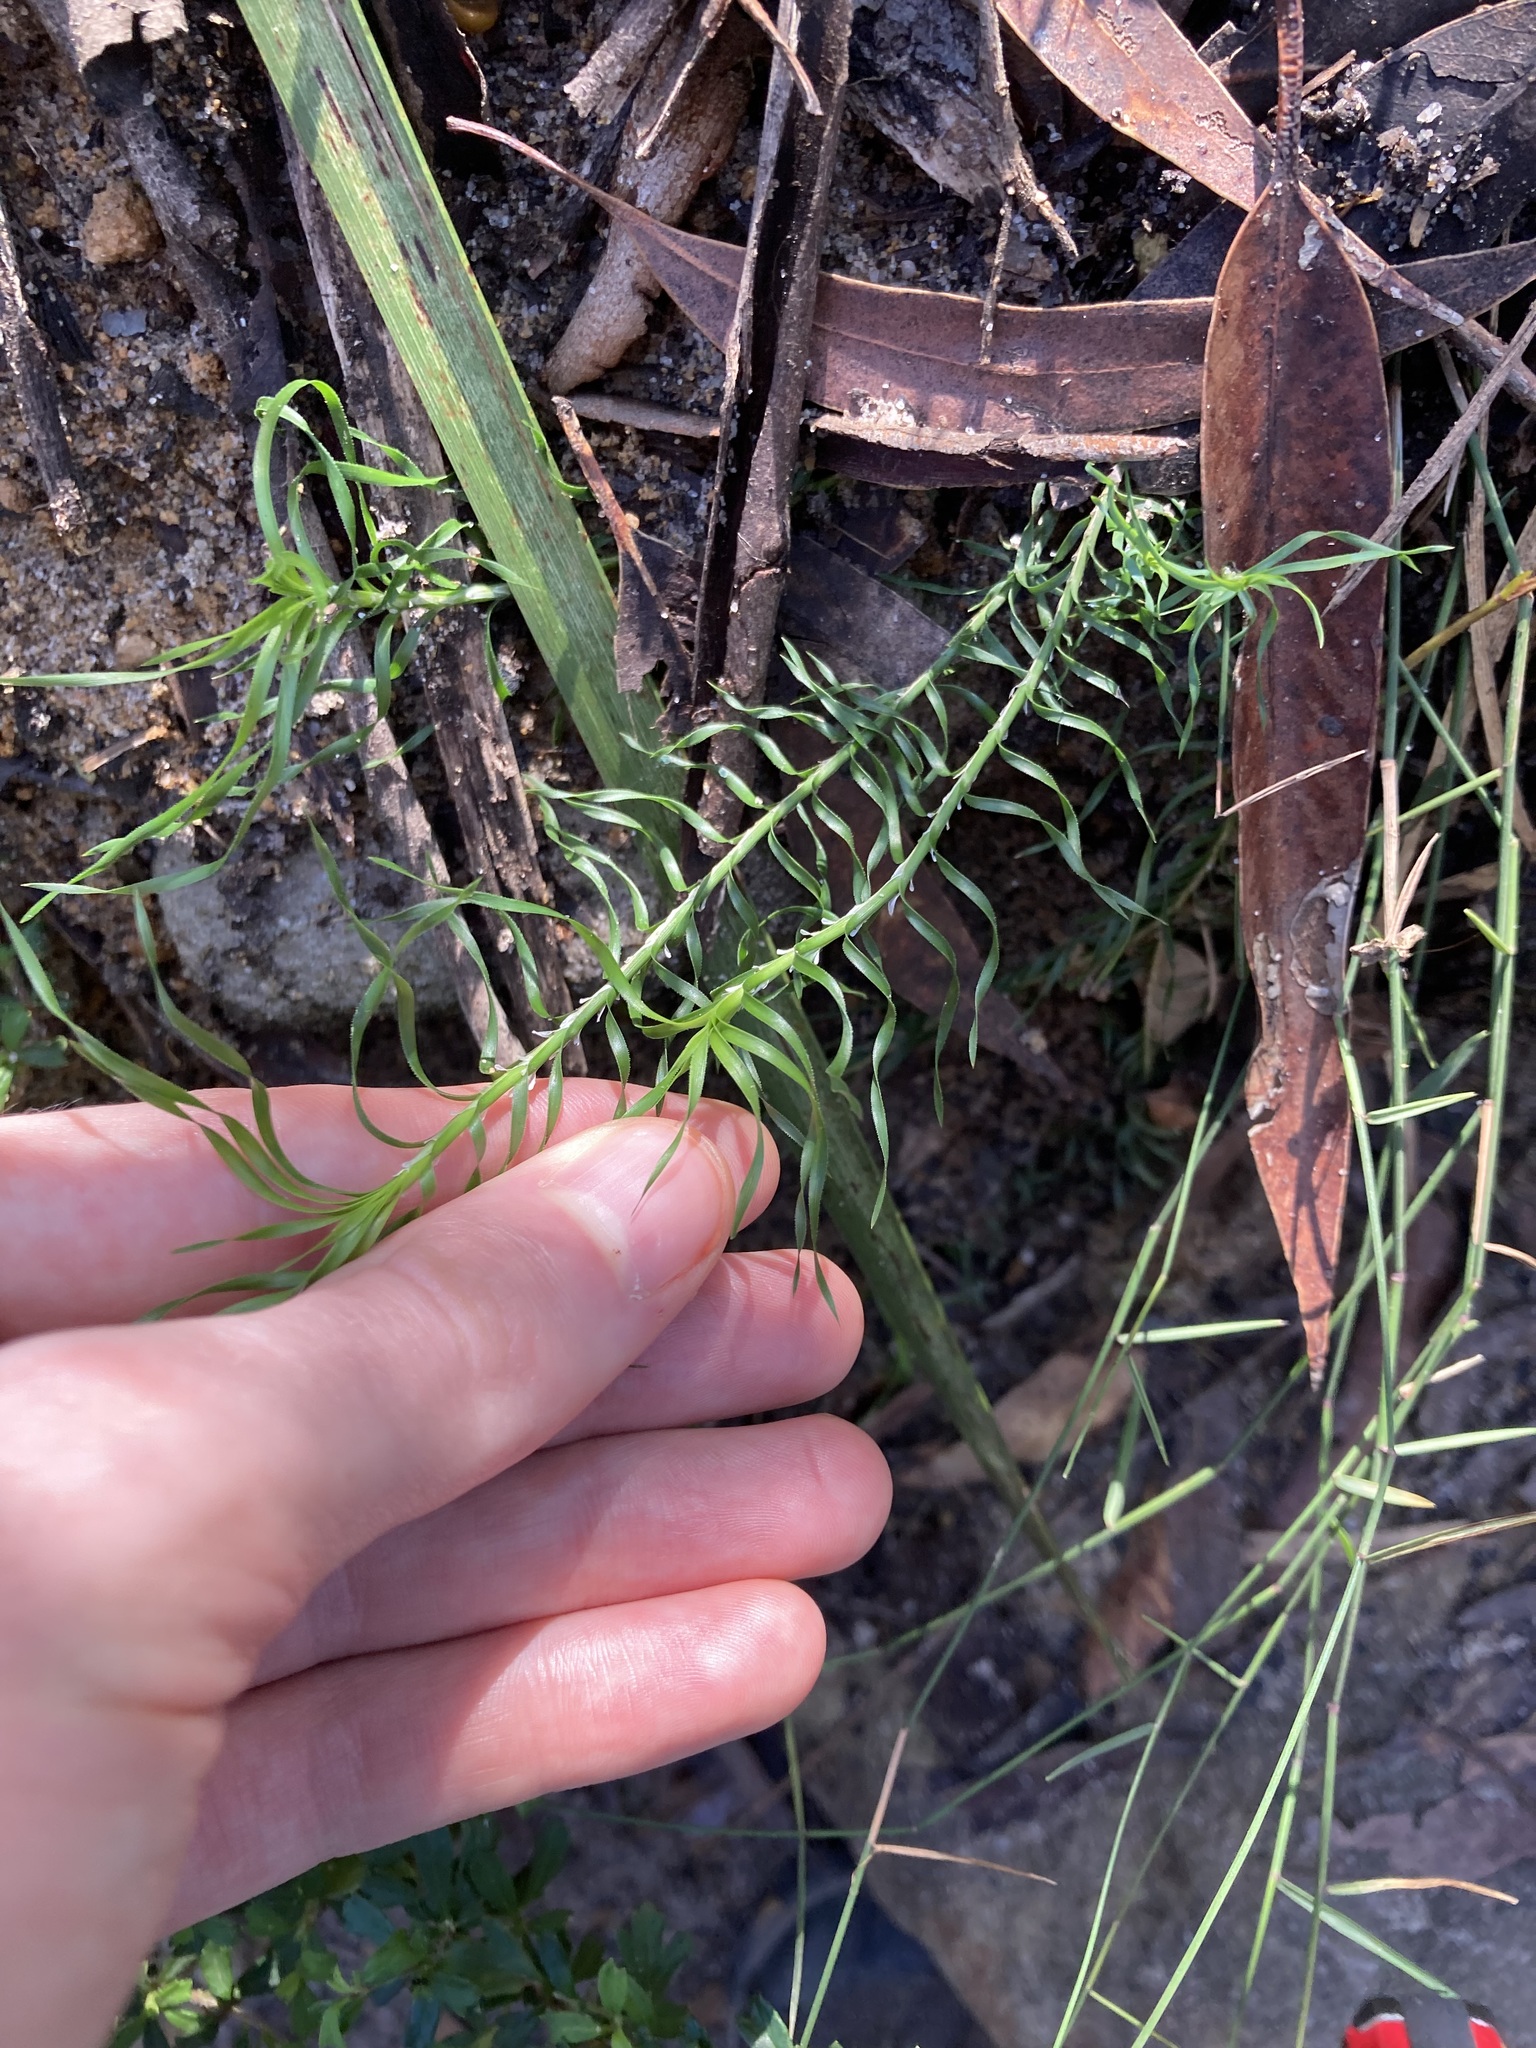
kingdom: Plantae
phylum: Tracheophyta
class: Liliopsida
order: Asparagales
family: Asparagaceae
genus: Lomandra
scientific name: Lomandra obliqua
